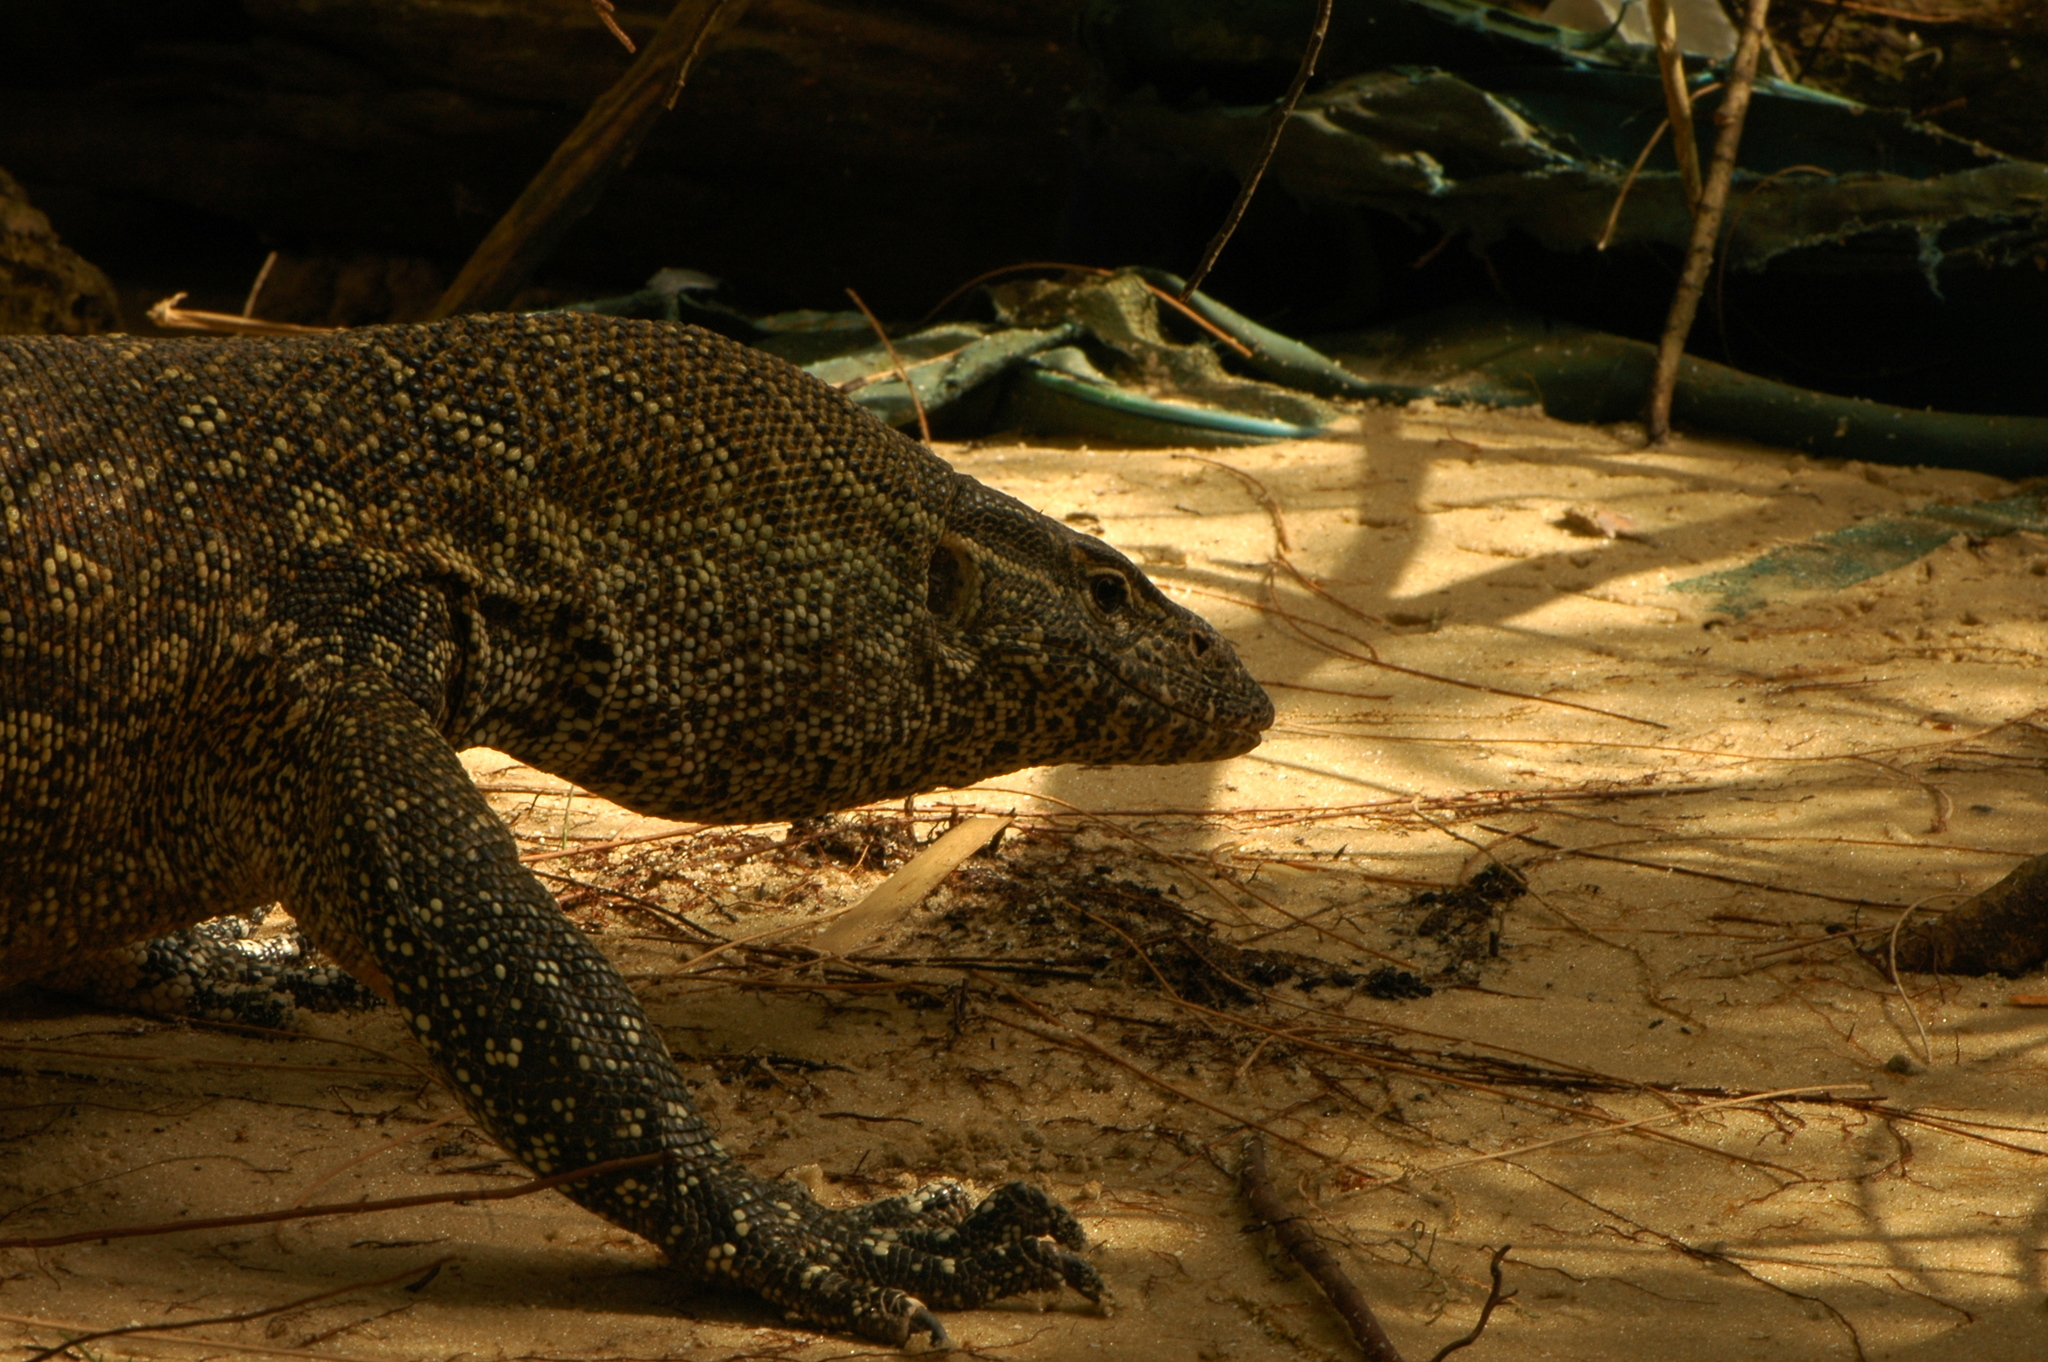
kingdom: Animalia
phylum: Chordata
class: Squamata
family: Varanidae
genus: Varanus
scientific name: Varanus niloticus
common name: Nile monitor
